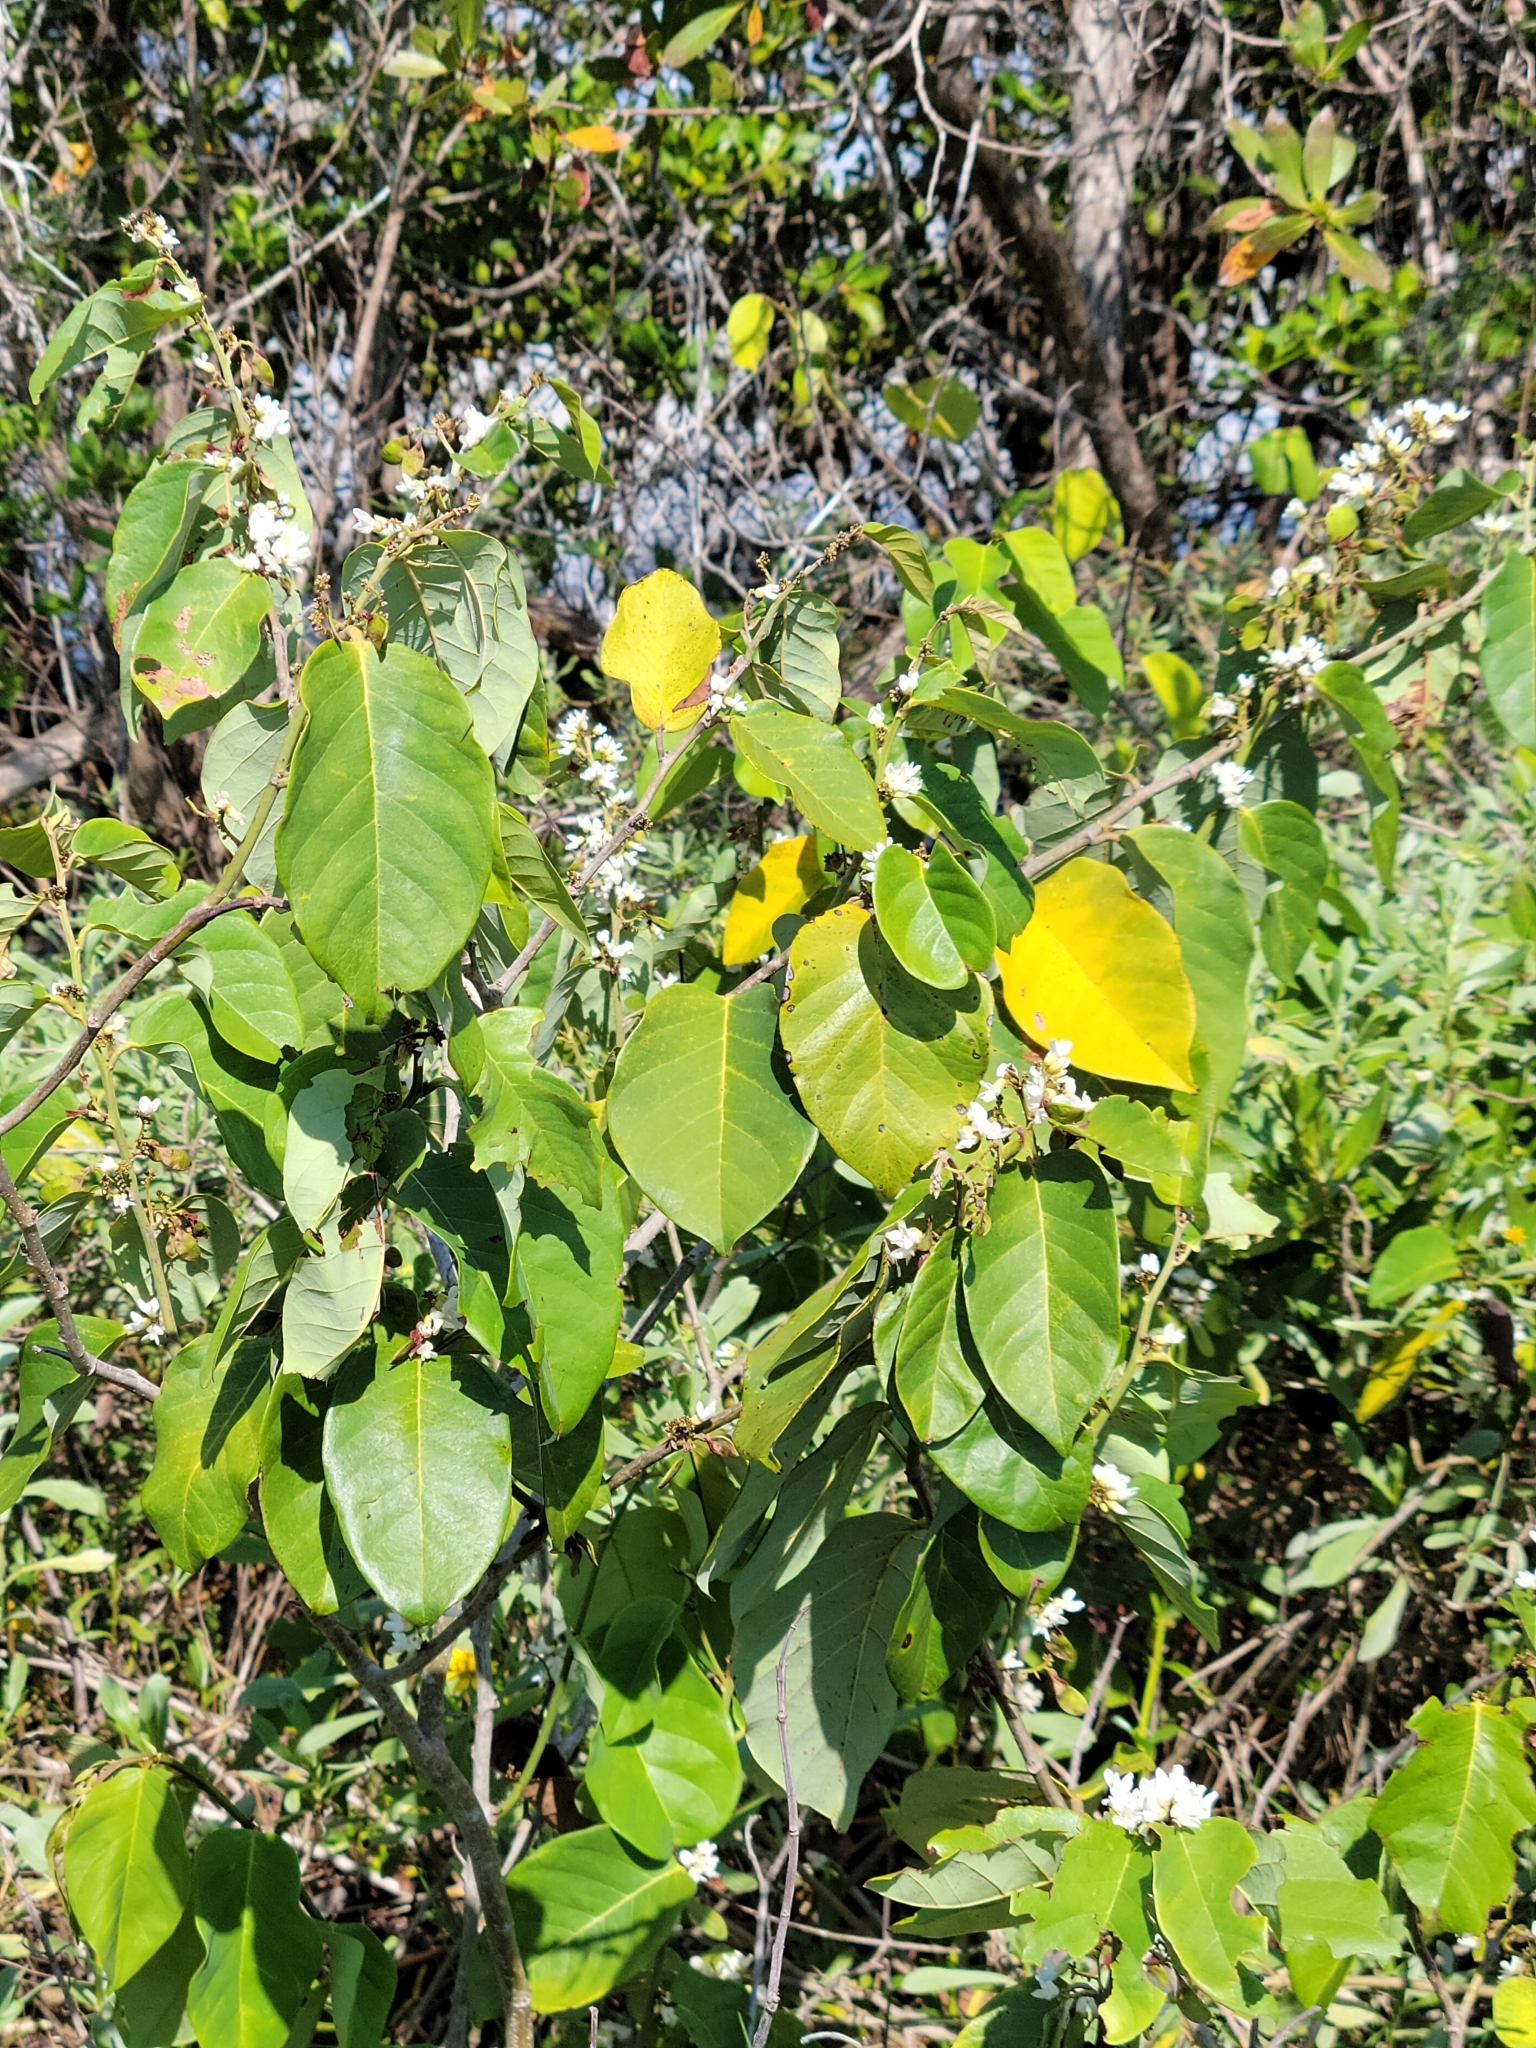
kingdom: Plantae
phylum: Tracheophyta
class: Magnoliopsida
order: Fabales
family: Fabaceae
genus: Dalbergia
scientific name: Dalbergia ecastaphyllum
